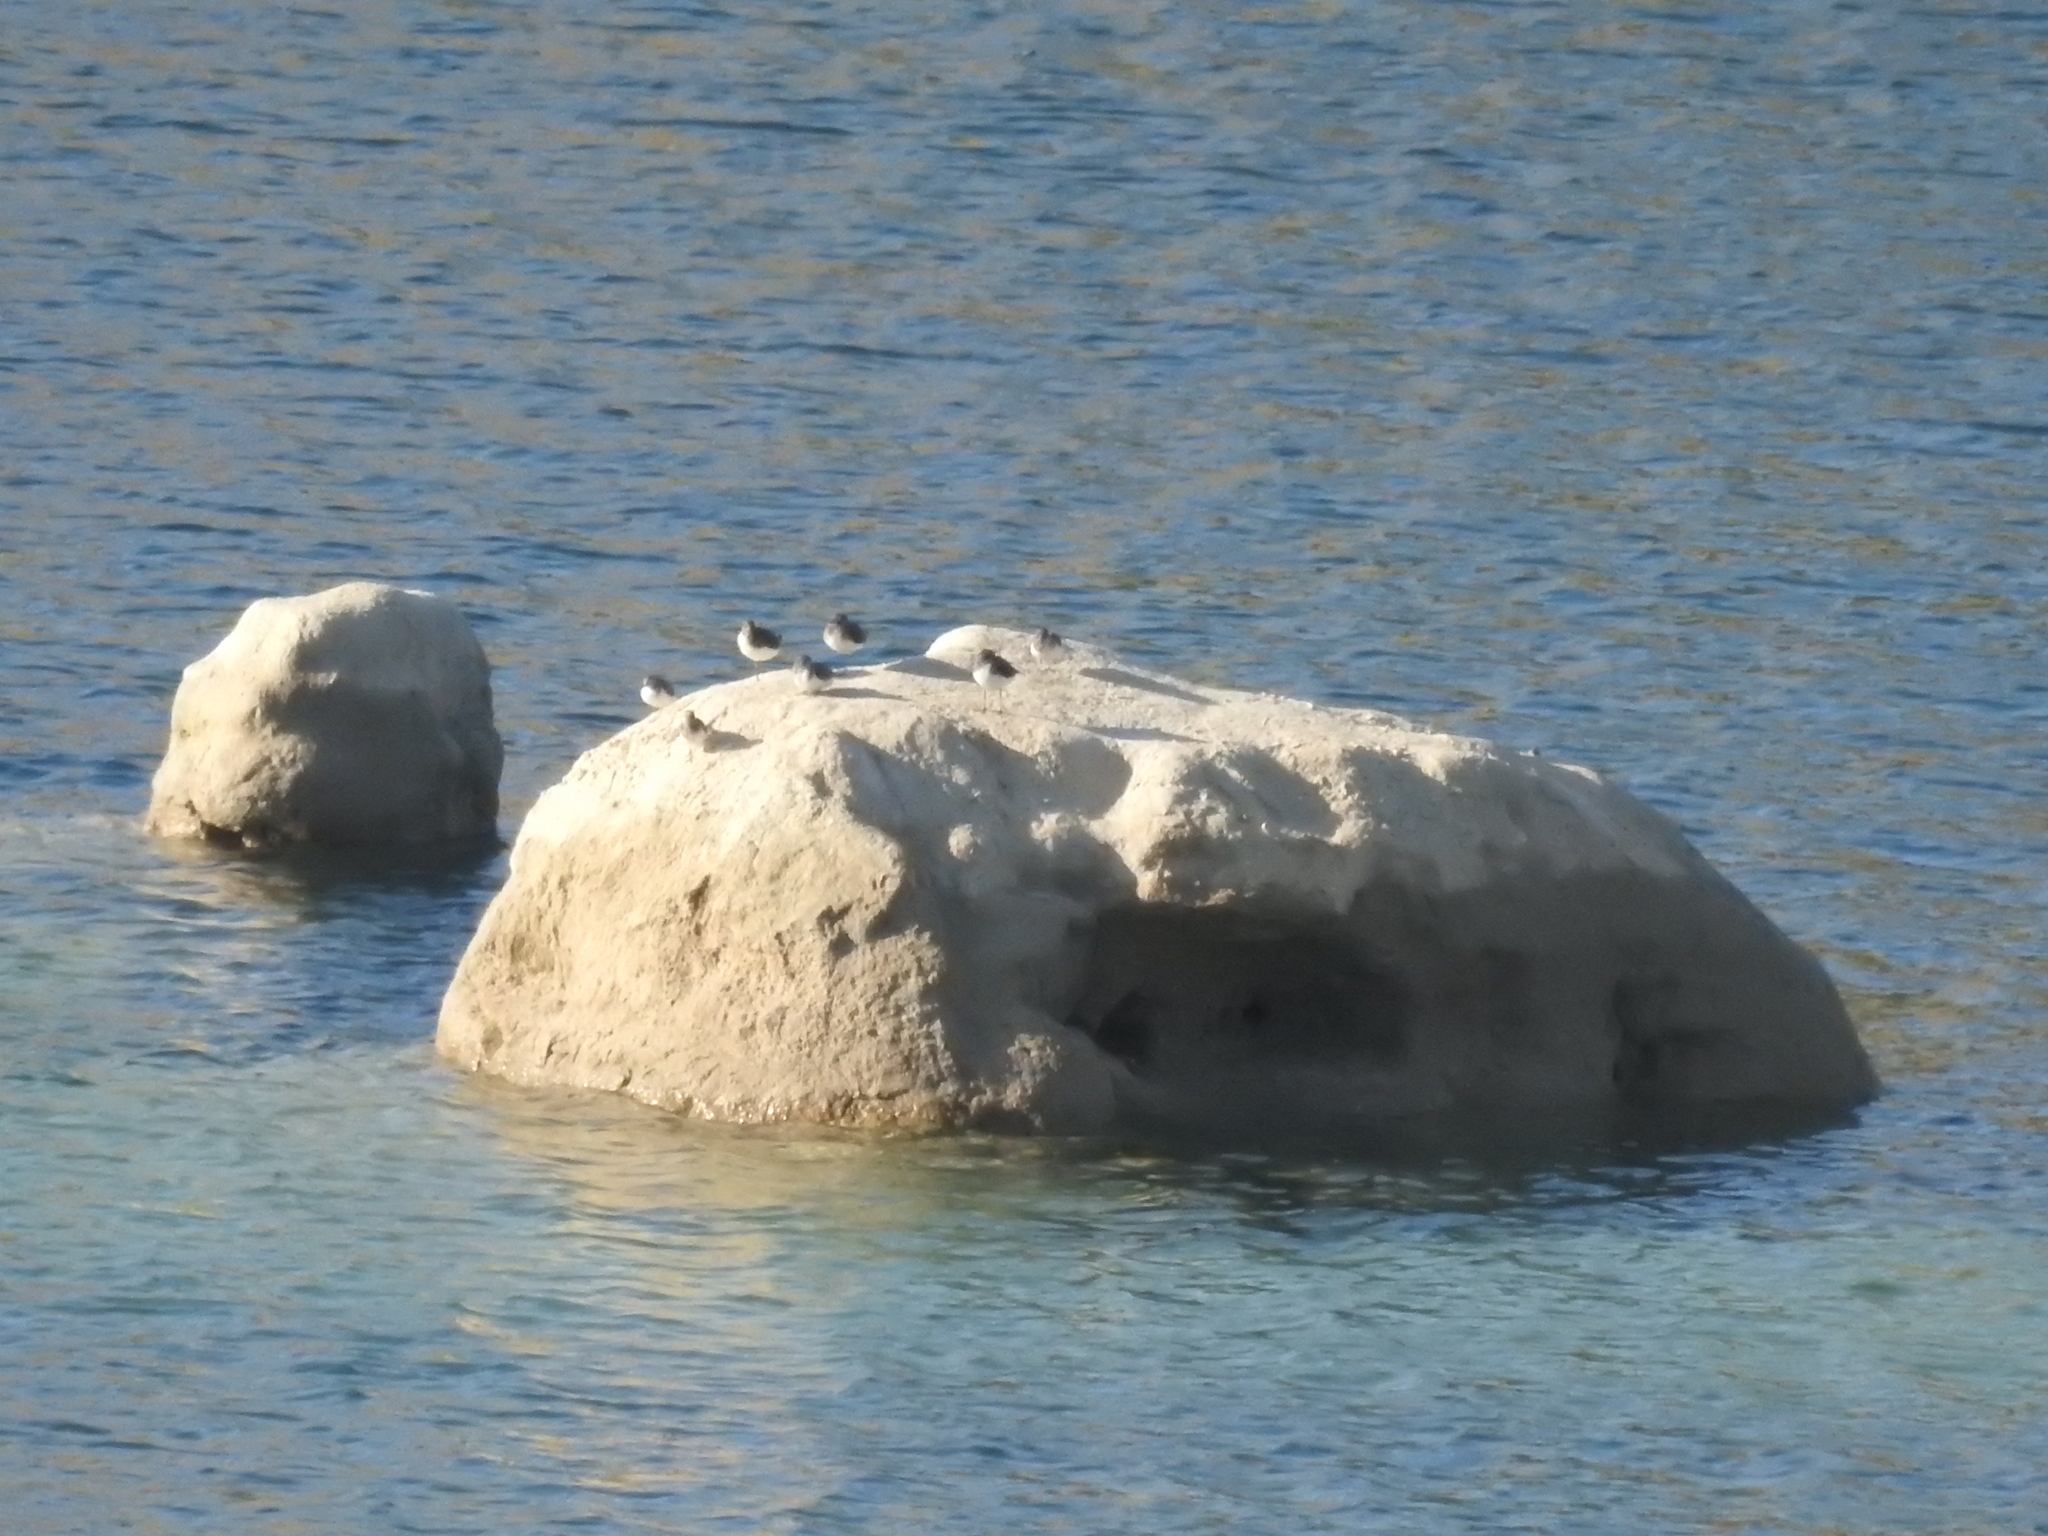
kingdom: Animalia
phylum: Chordata
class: Aves
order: Charadriiformes
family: Scolopacidae
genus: Tringa
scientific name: Tringa ochropus
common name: Green sandpiper
